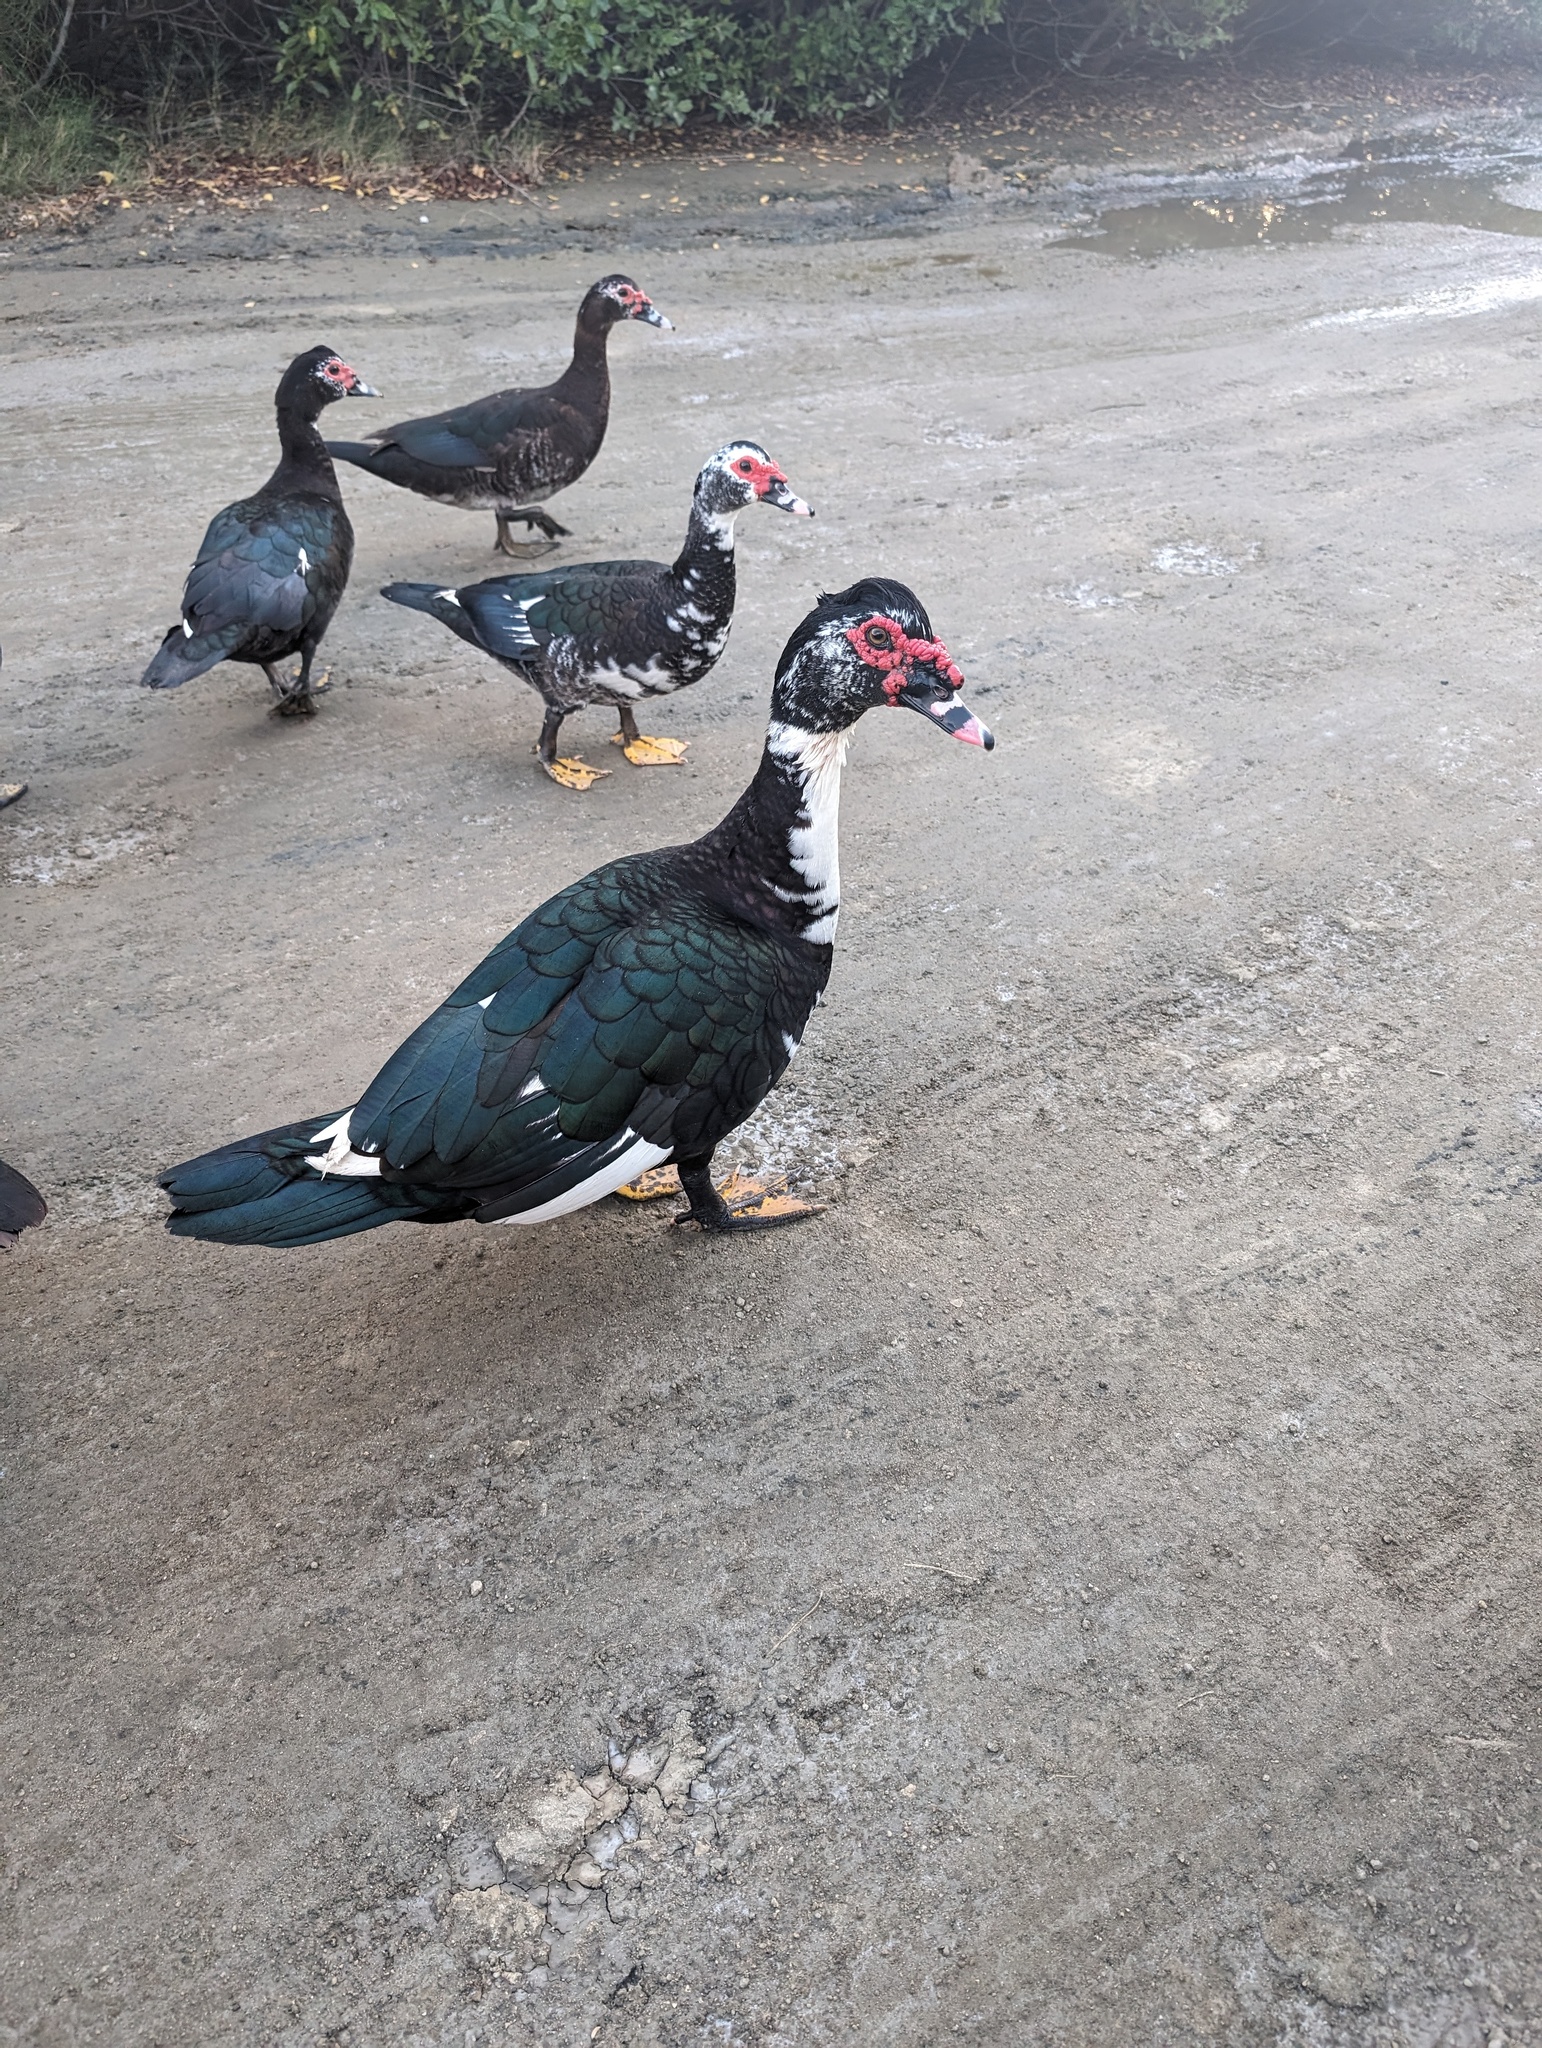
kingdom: Animalia
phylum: Chordata
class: Aves
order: Anseriformes
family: Anatidae
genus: Cairina
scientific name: Cairina moschata
